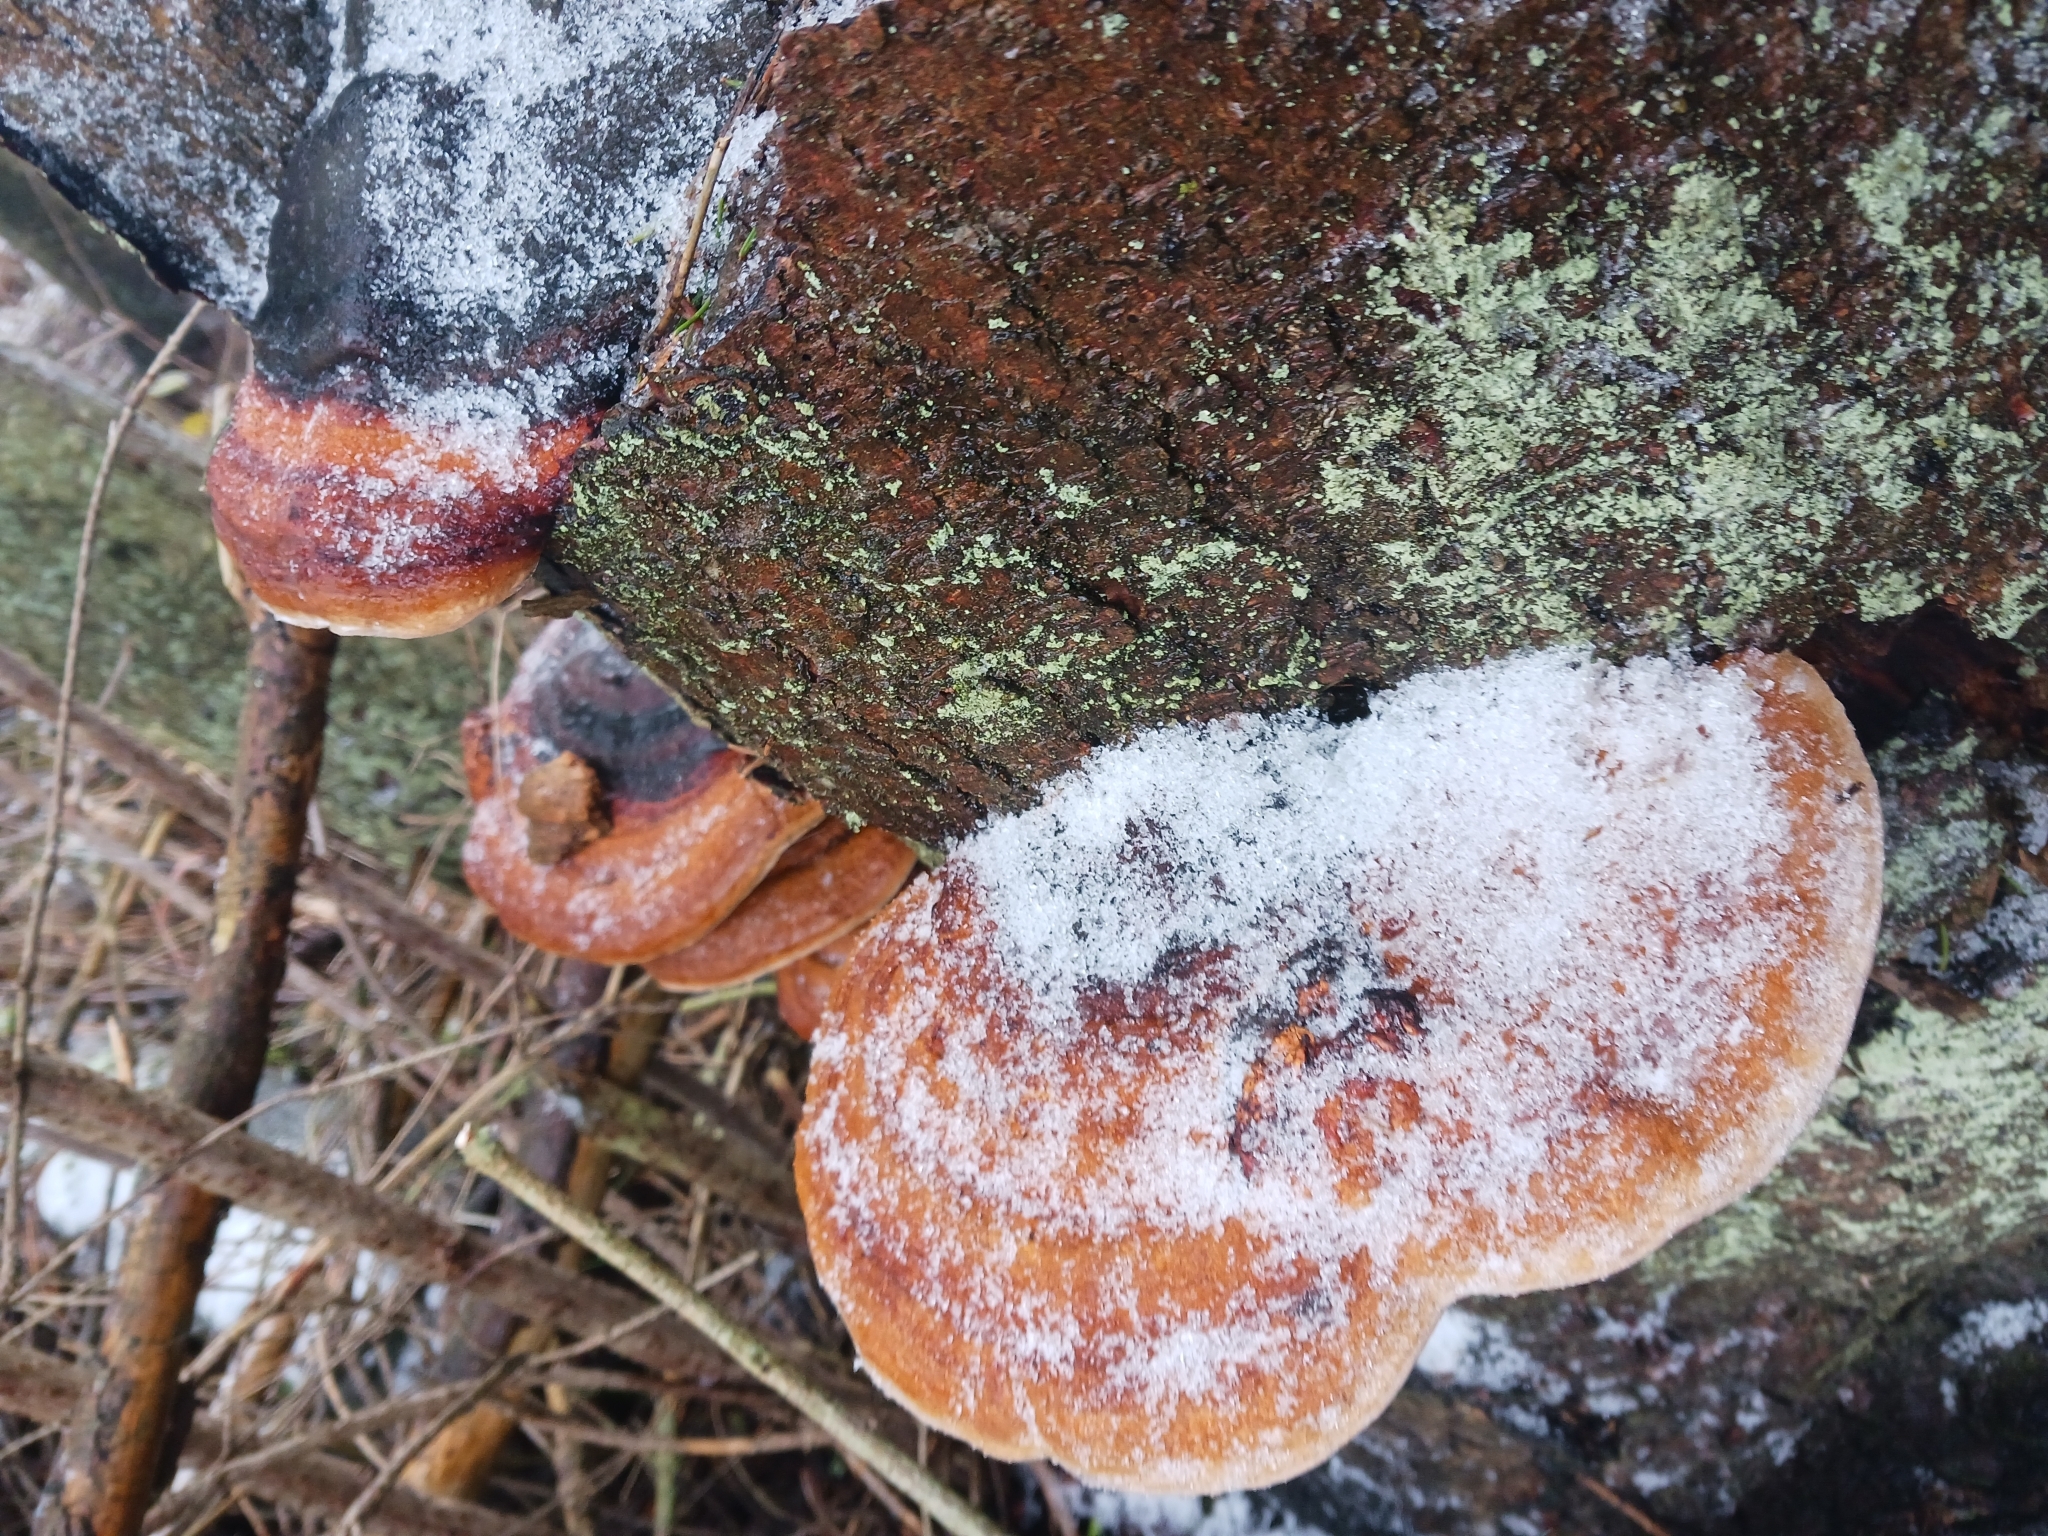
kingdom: Fungi
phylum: Basidiomycota
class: Agaricomycetes
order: Polyporales
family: Fomitopsidaceae
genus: Fomitopsis
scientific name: Fomitopsis pinicola
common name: Red-belted bracket
